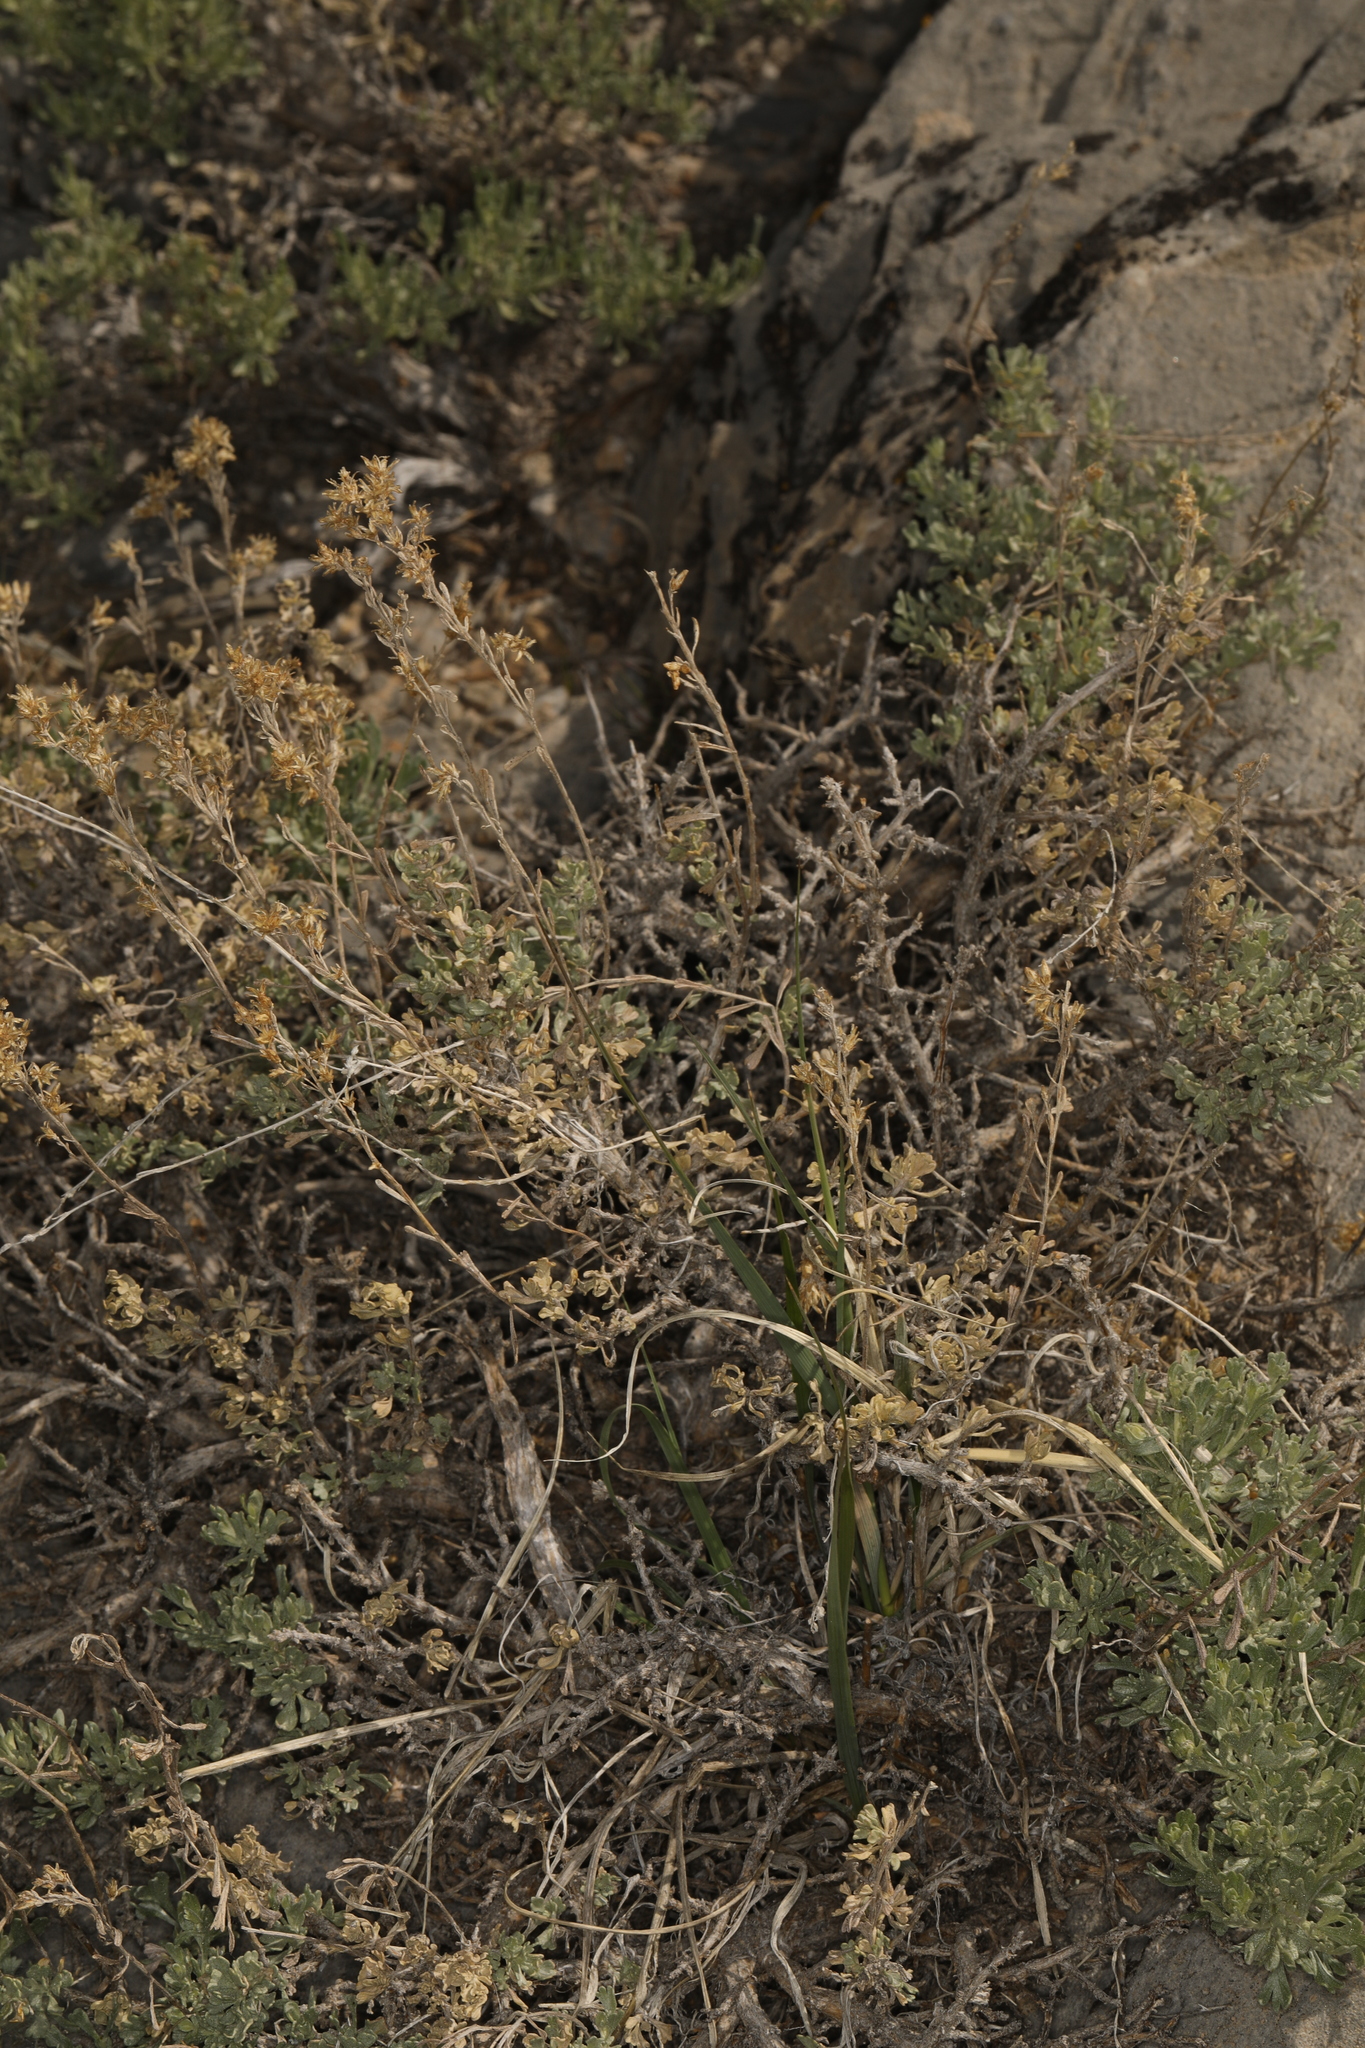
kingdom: Plantae
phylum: Tracheophyta
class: Magnoliopsida
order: Asterales
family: Asteraceae
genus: Artemisia
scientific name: Artemisia nova
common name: Black-sage
